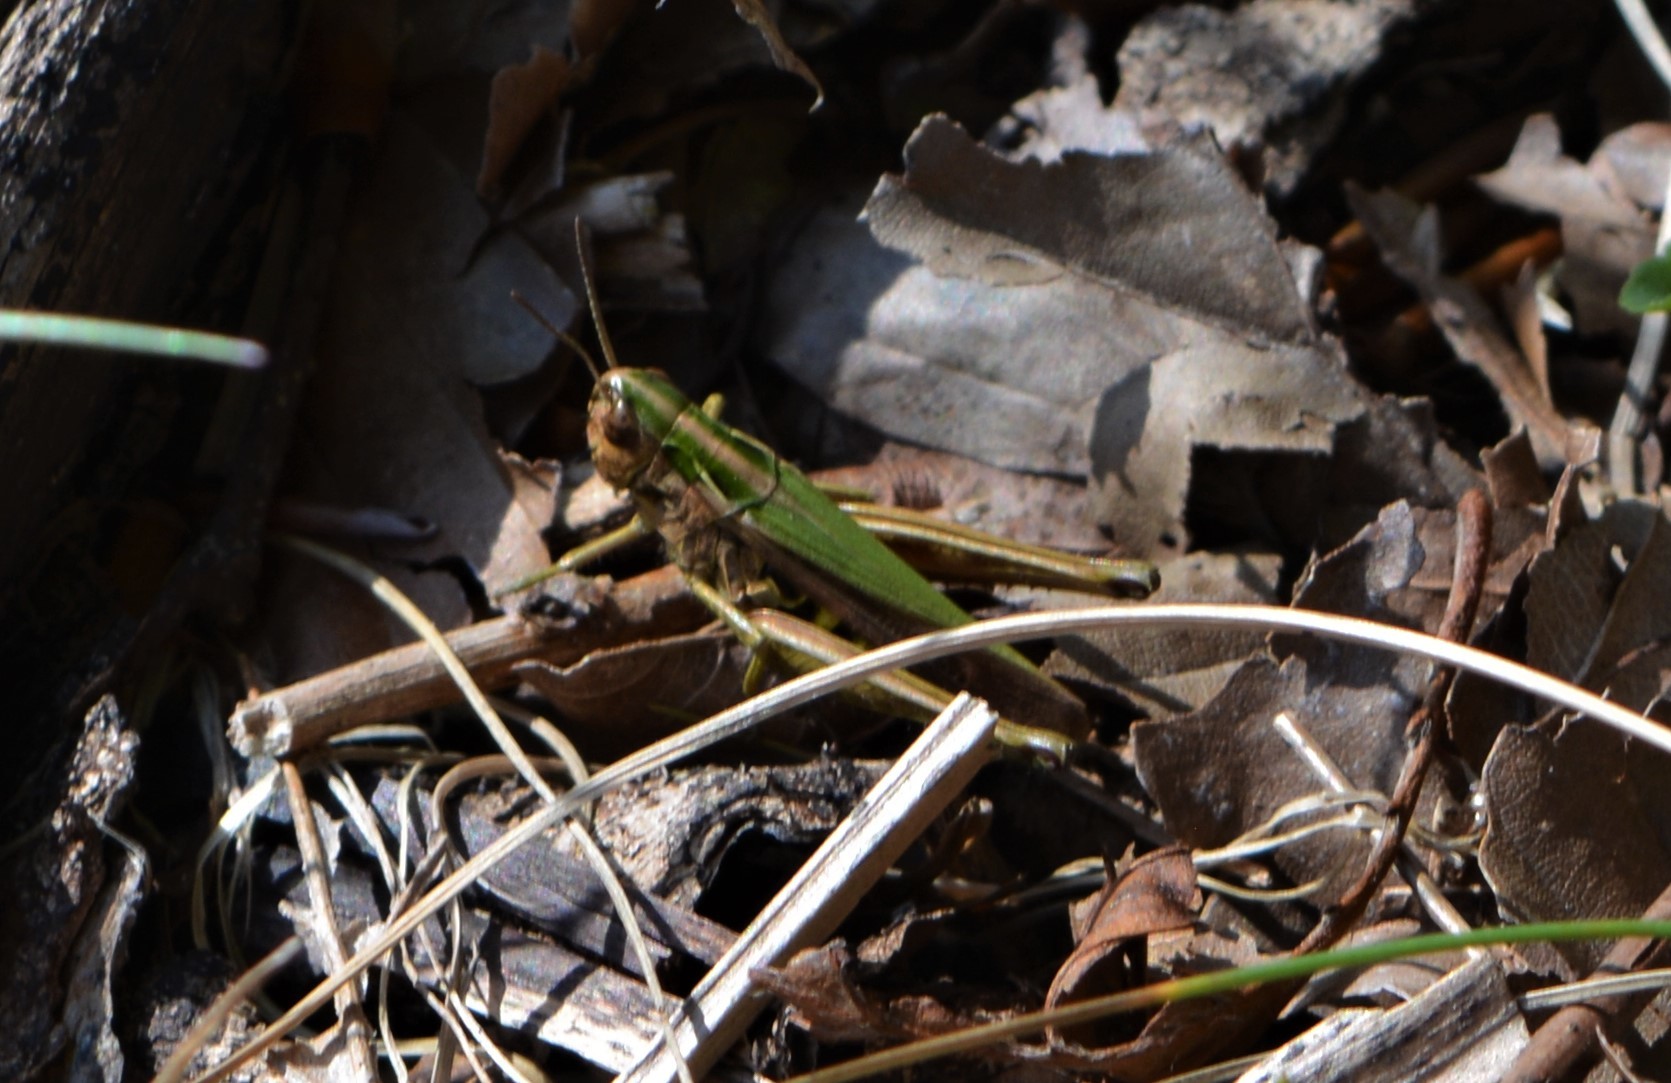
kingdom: Animalia
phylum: Arthropoda
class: Insecta
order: Orthoptera
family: Acrididae
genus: Omocestus
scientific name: Omocestus viridulus
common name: Common green grasshopper
